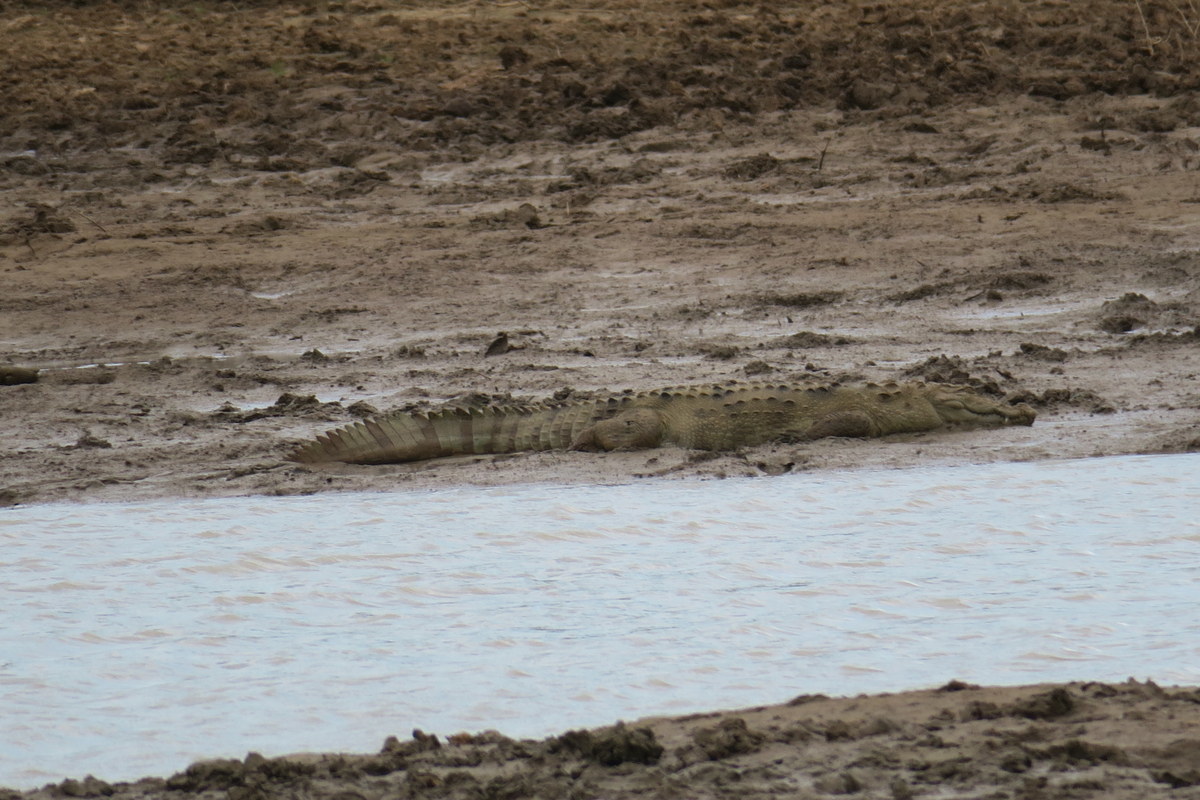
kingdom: Animalia
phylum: Chordata
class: Crocodylia
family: Crocodylidae
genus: Crocodylus
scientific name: Crocodylus palustris
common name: Mugger crocodile
